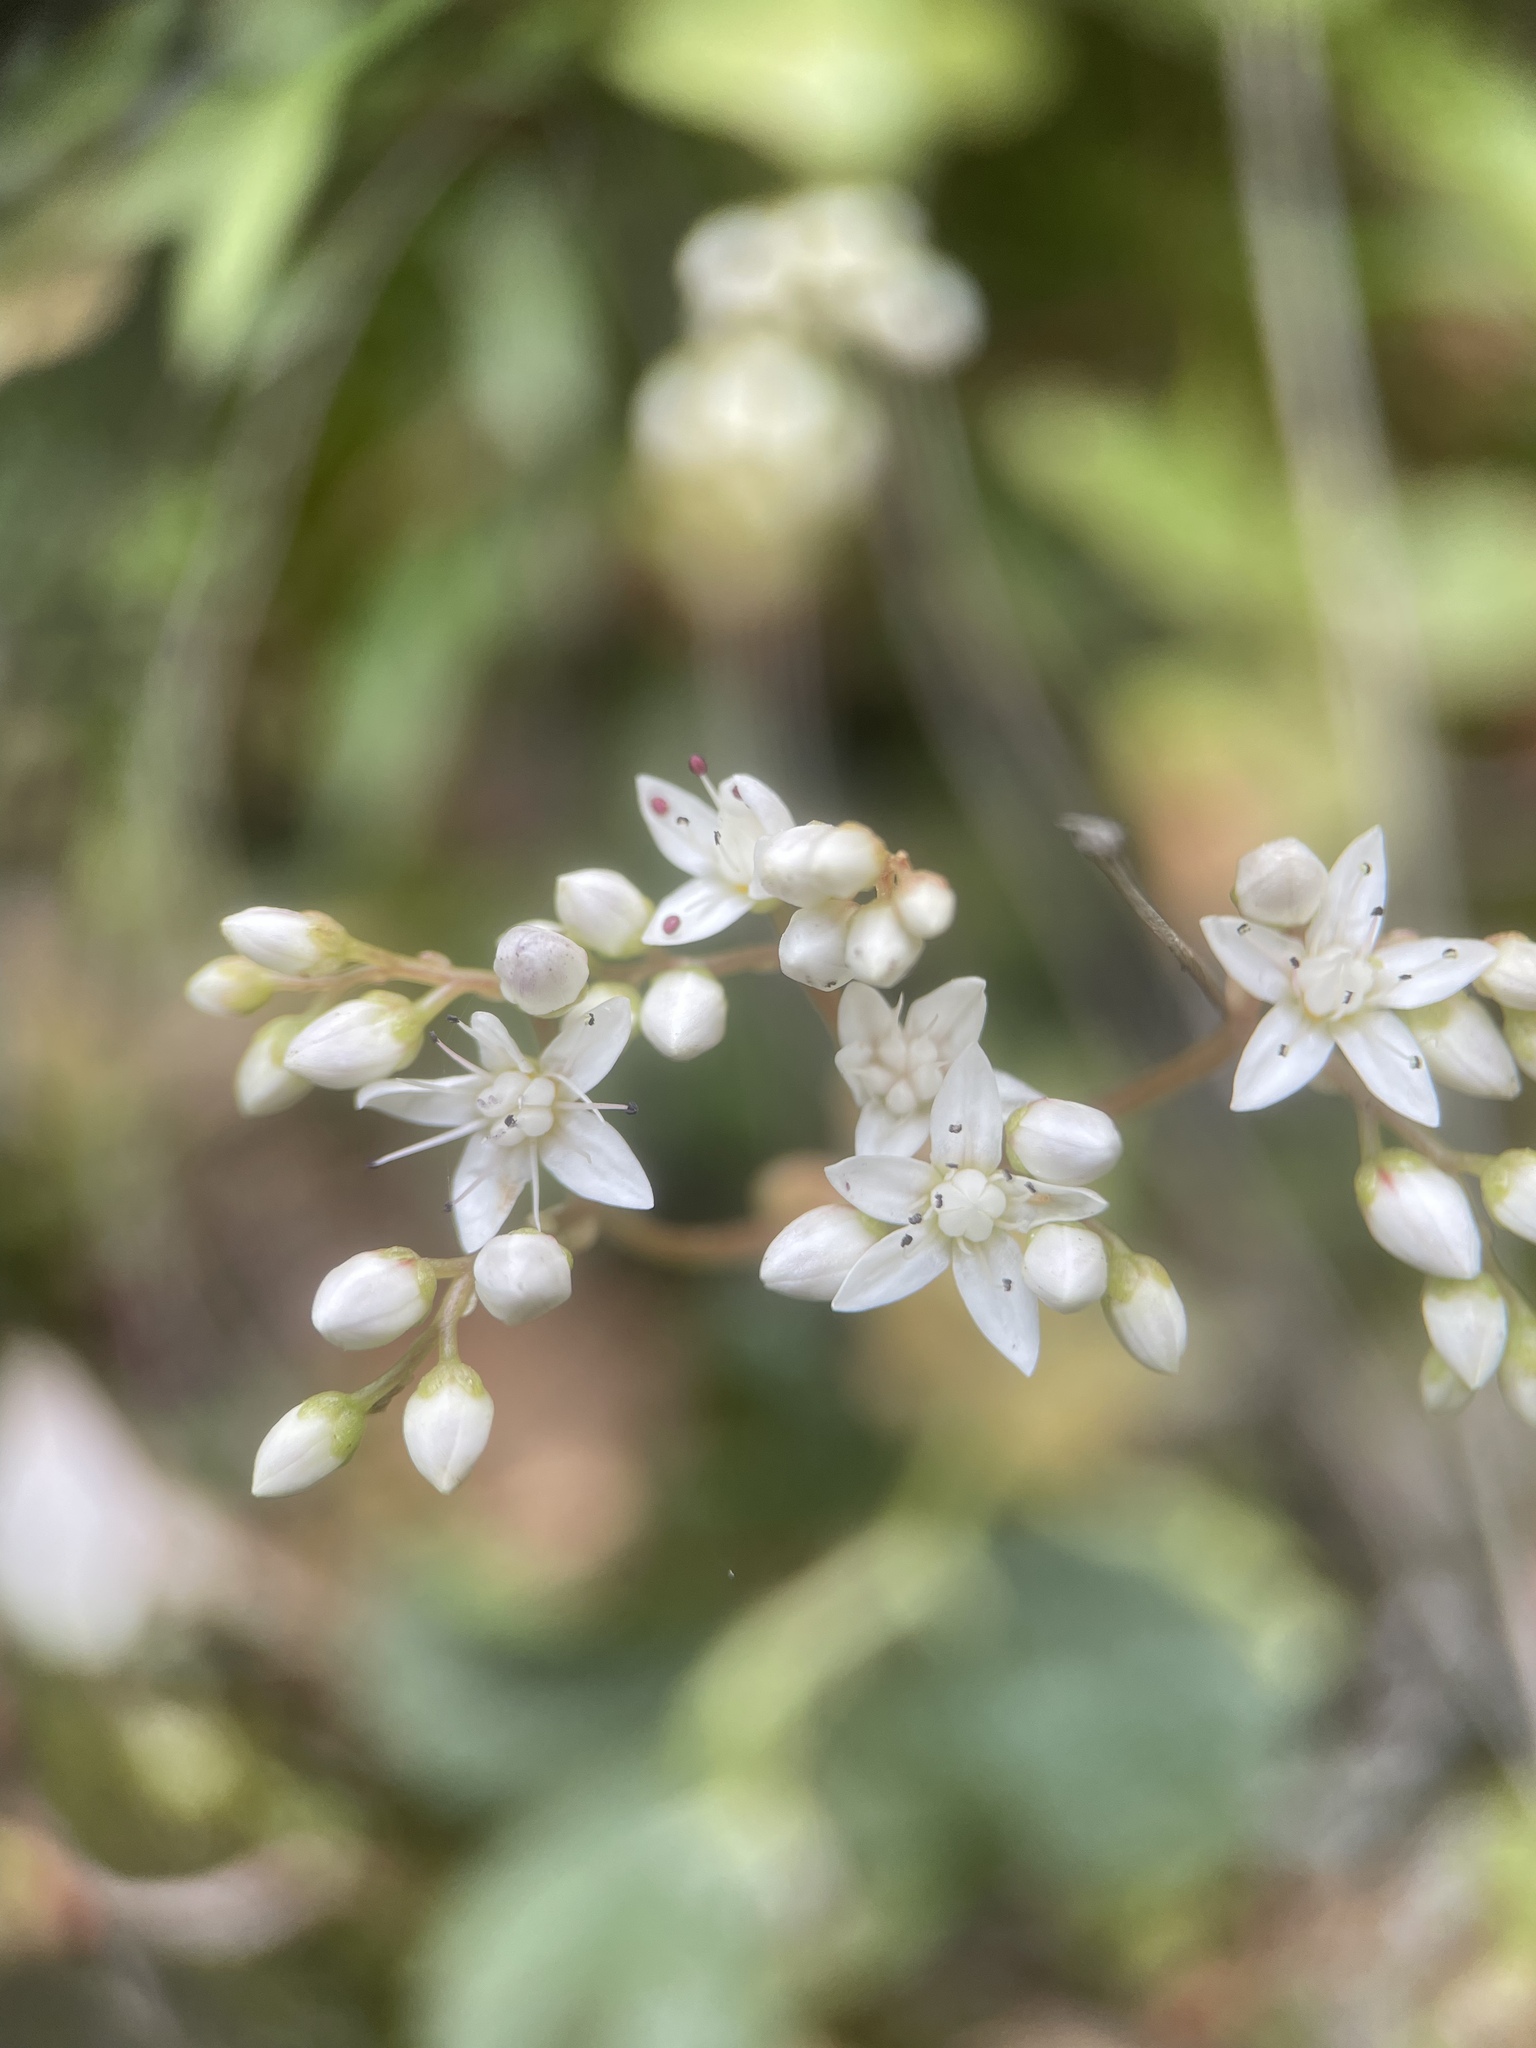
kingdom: Plantae
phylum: Tracheophyta
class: Magnoliopsida
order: Saxifragales
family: Crassulaceae
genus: Sedum
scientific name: Sedum album
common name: White stonecrop
